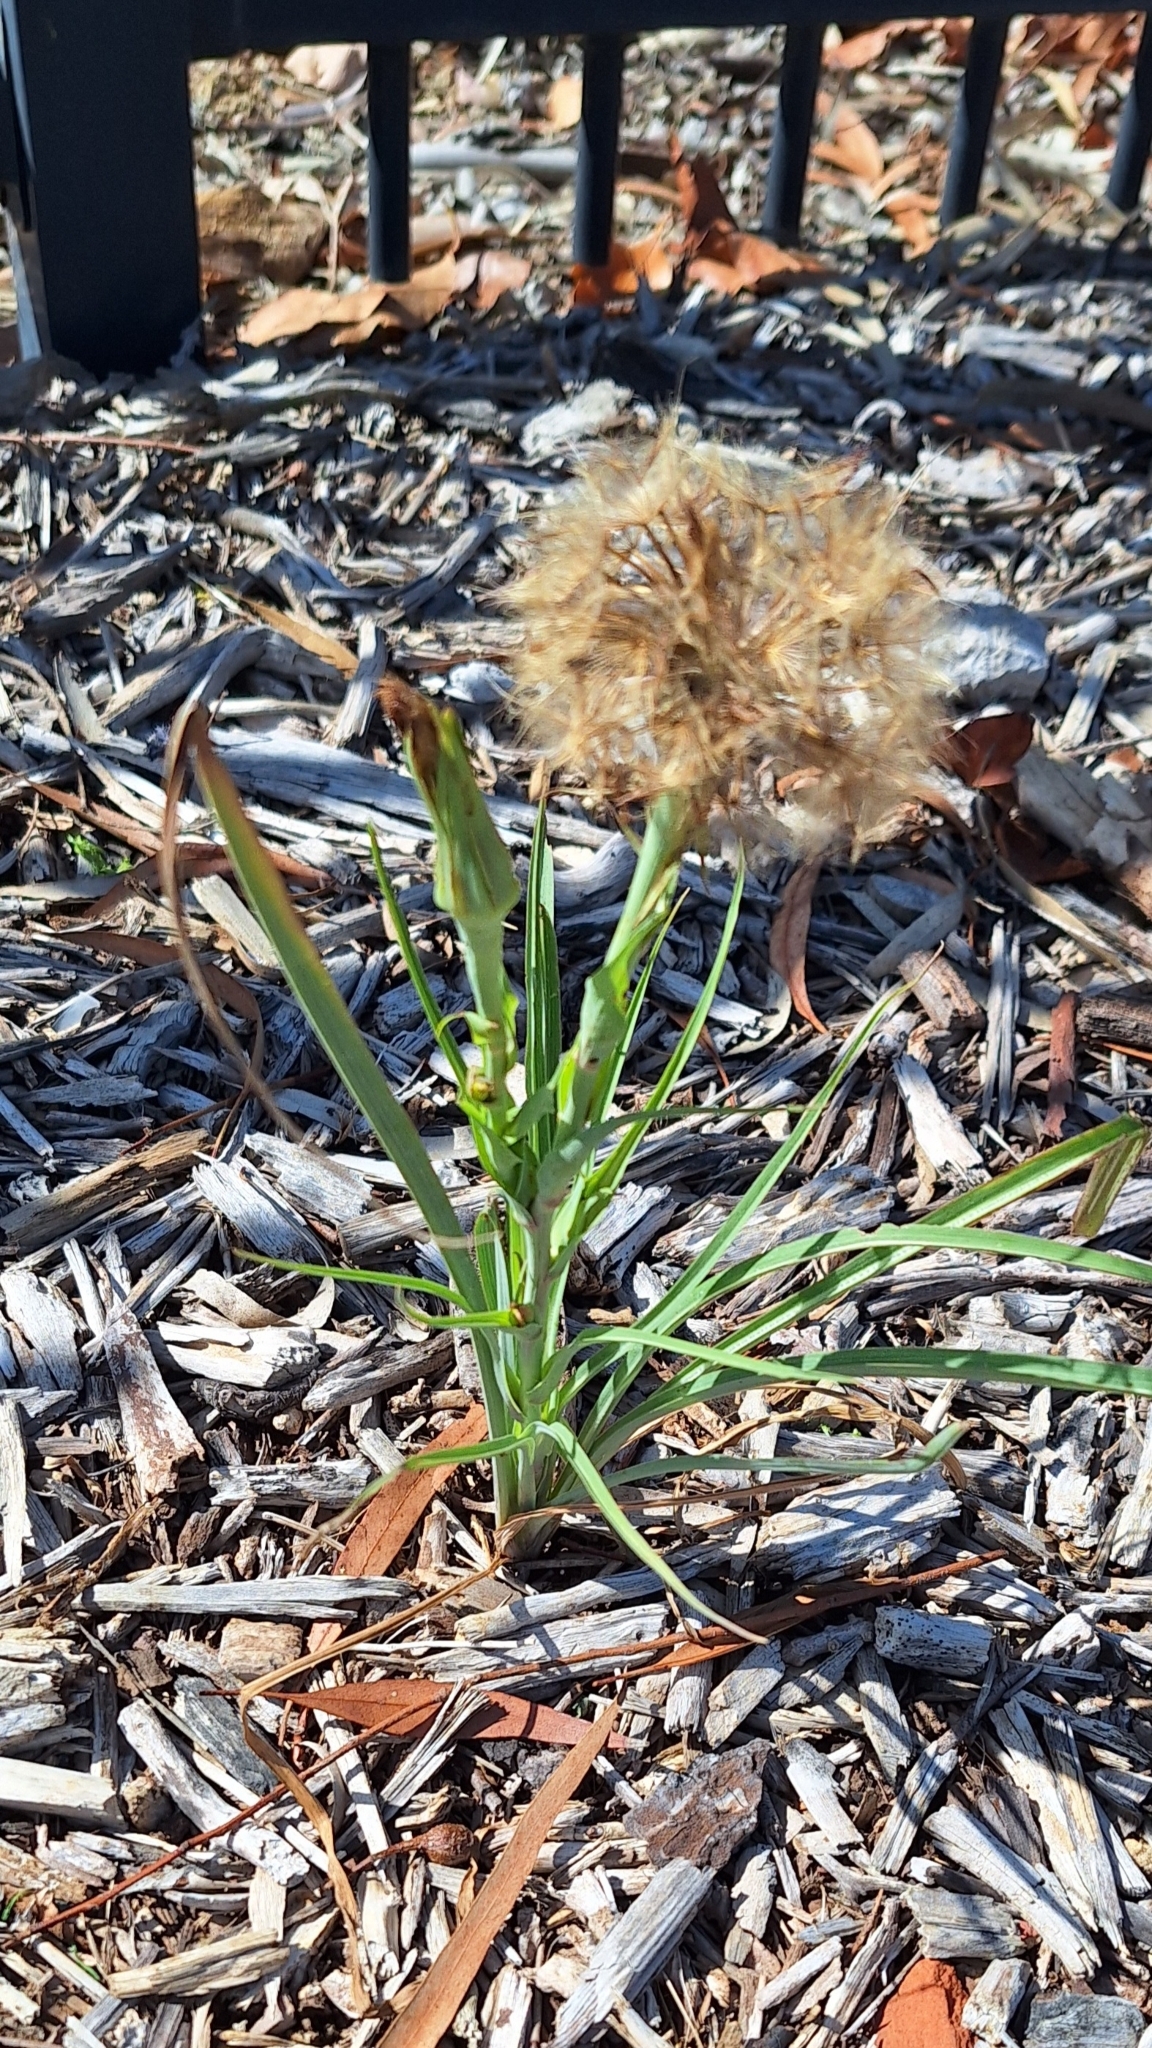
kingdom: Plantae
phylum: Tracheophyta
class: Magnoliopsida
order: Asterales
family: Asteraceae
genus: Tragopogon
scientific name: Tragopogon porrifolius
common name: Salsify
